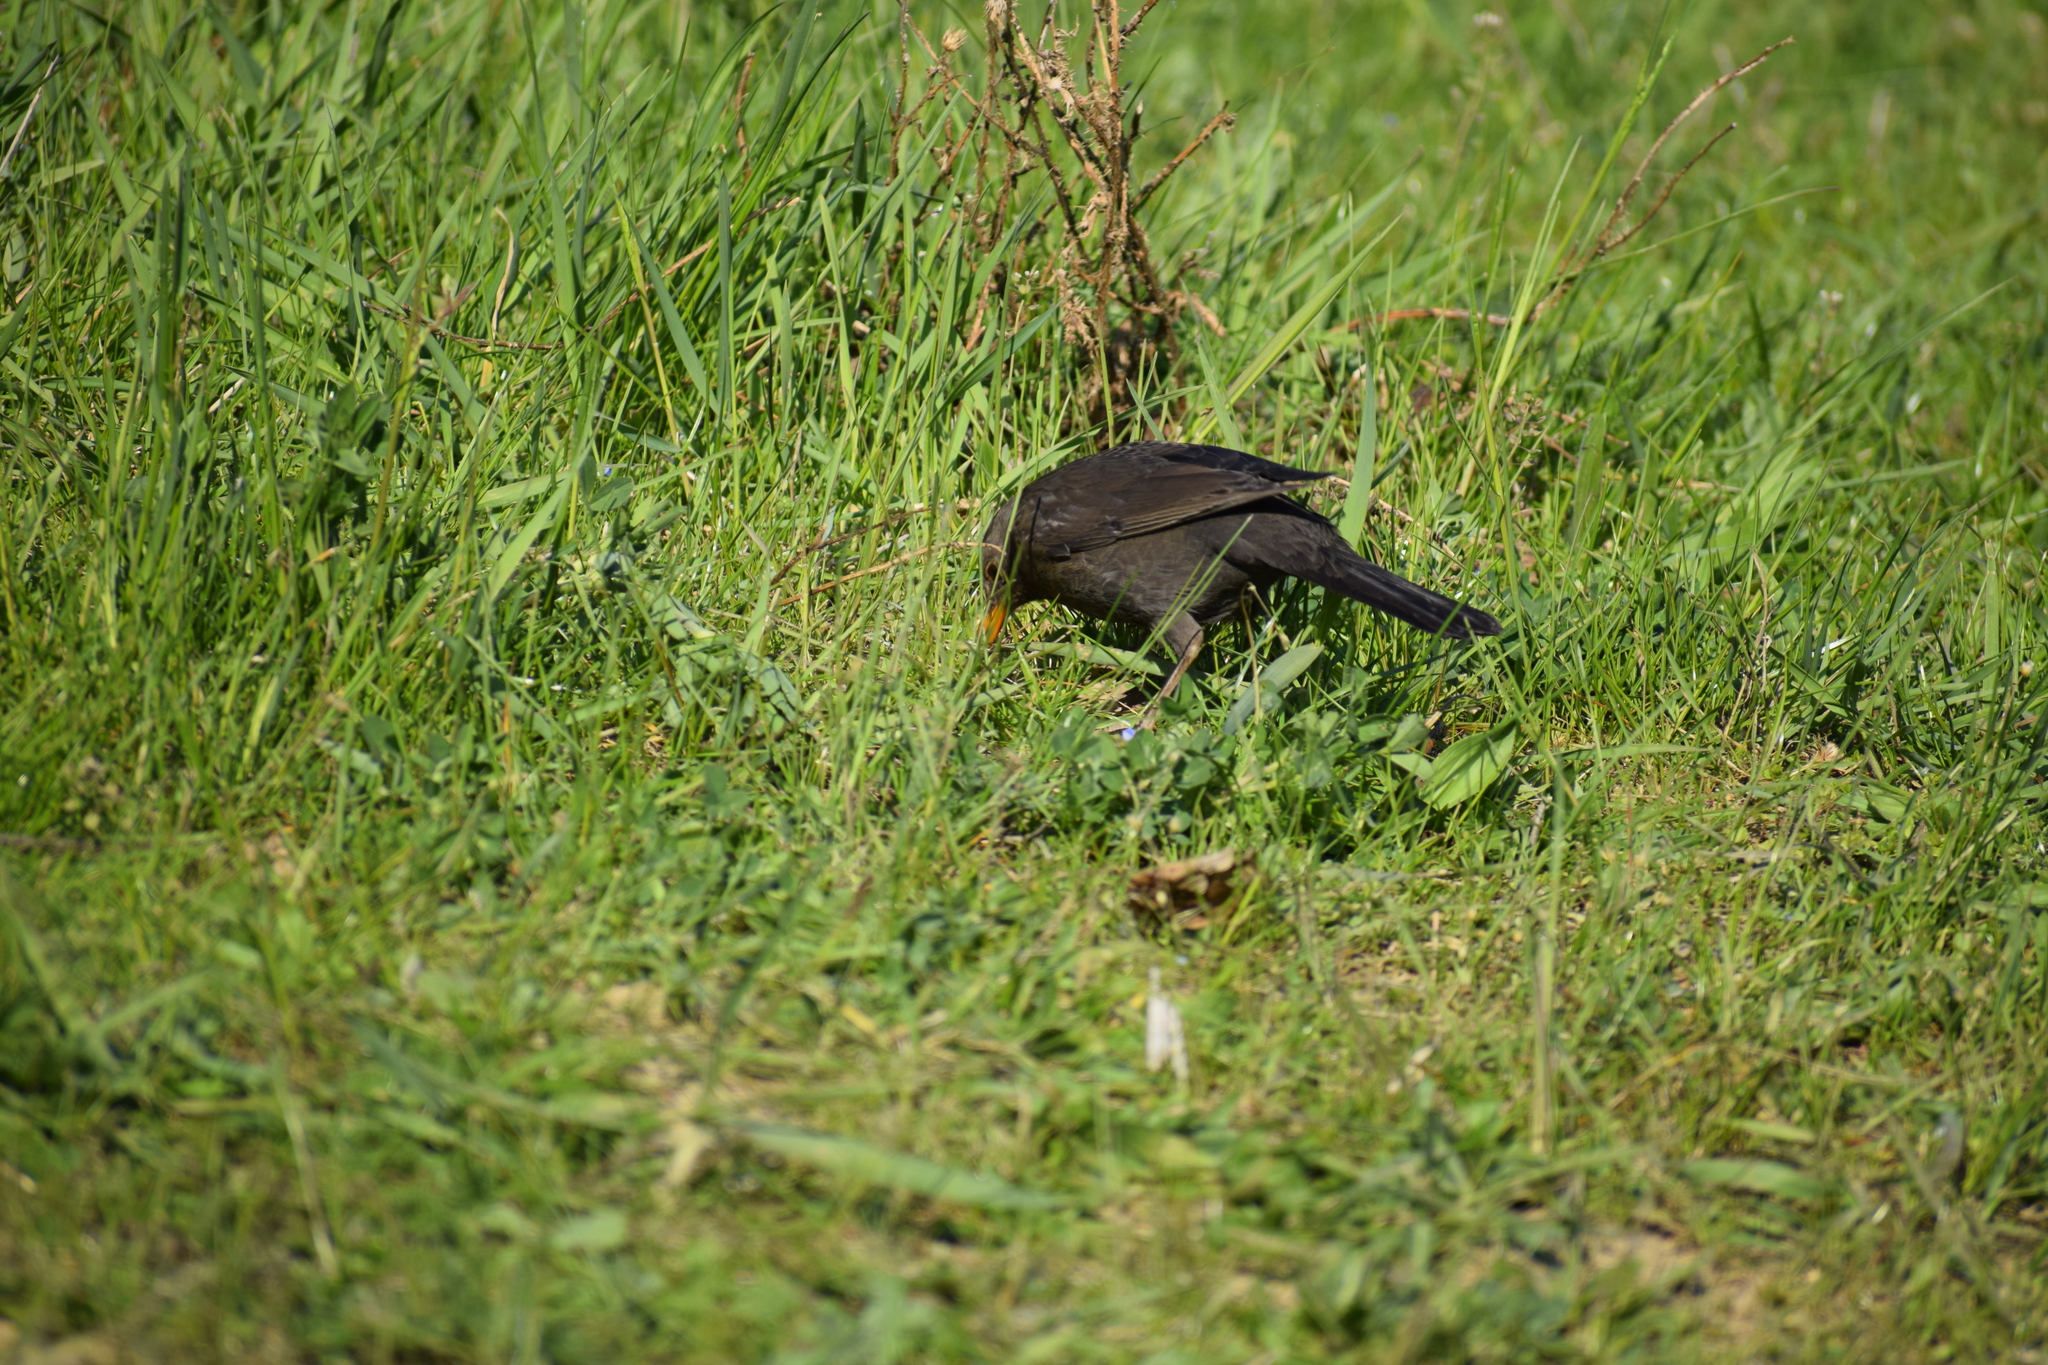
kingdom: Animalia
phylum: Chordata
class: Aves
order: Passeriformes
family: Turdidae
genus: Turdus
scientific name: Turdus merula
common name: Common blackbird
